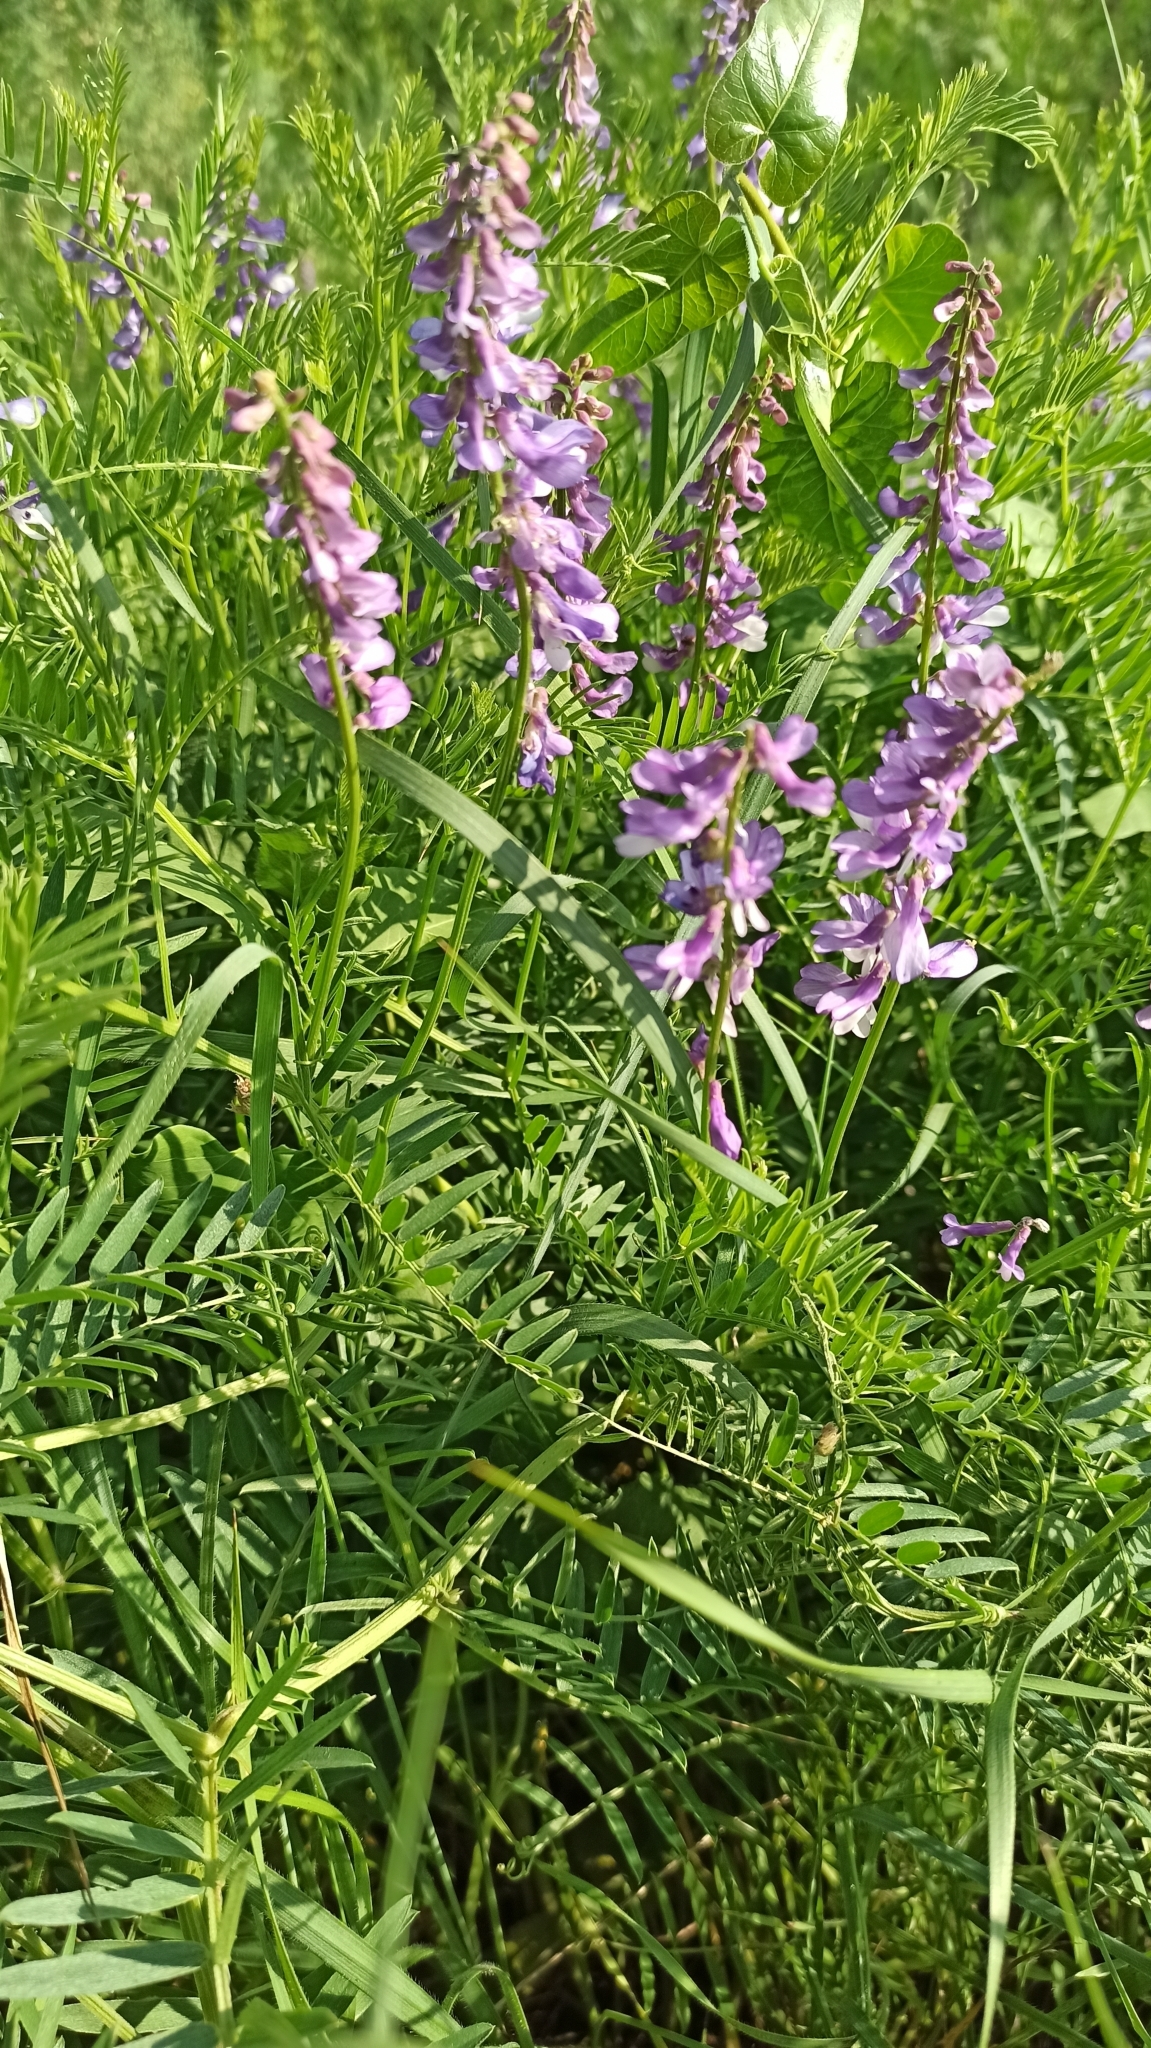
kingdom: Plantae
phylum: Tracheophyta
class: Magnoliopsida
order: Fabales
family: Fabaceae
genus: Vicia
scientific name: Vicia tenuifolia
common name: Fine-leaved vetch
